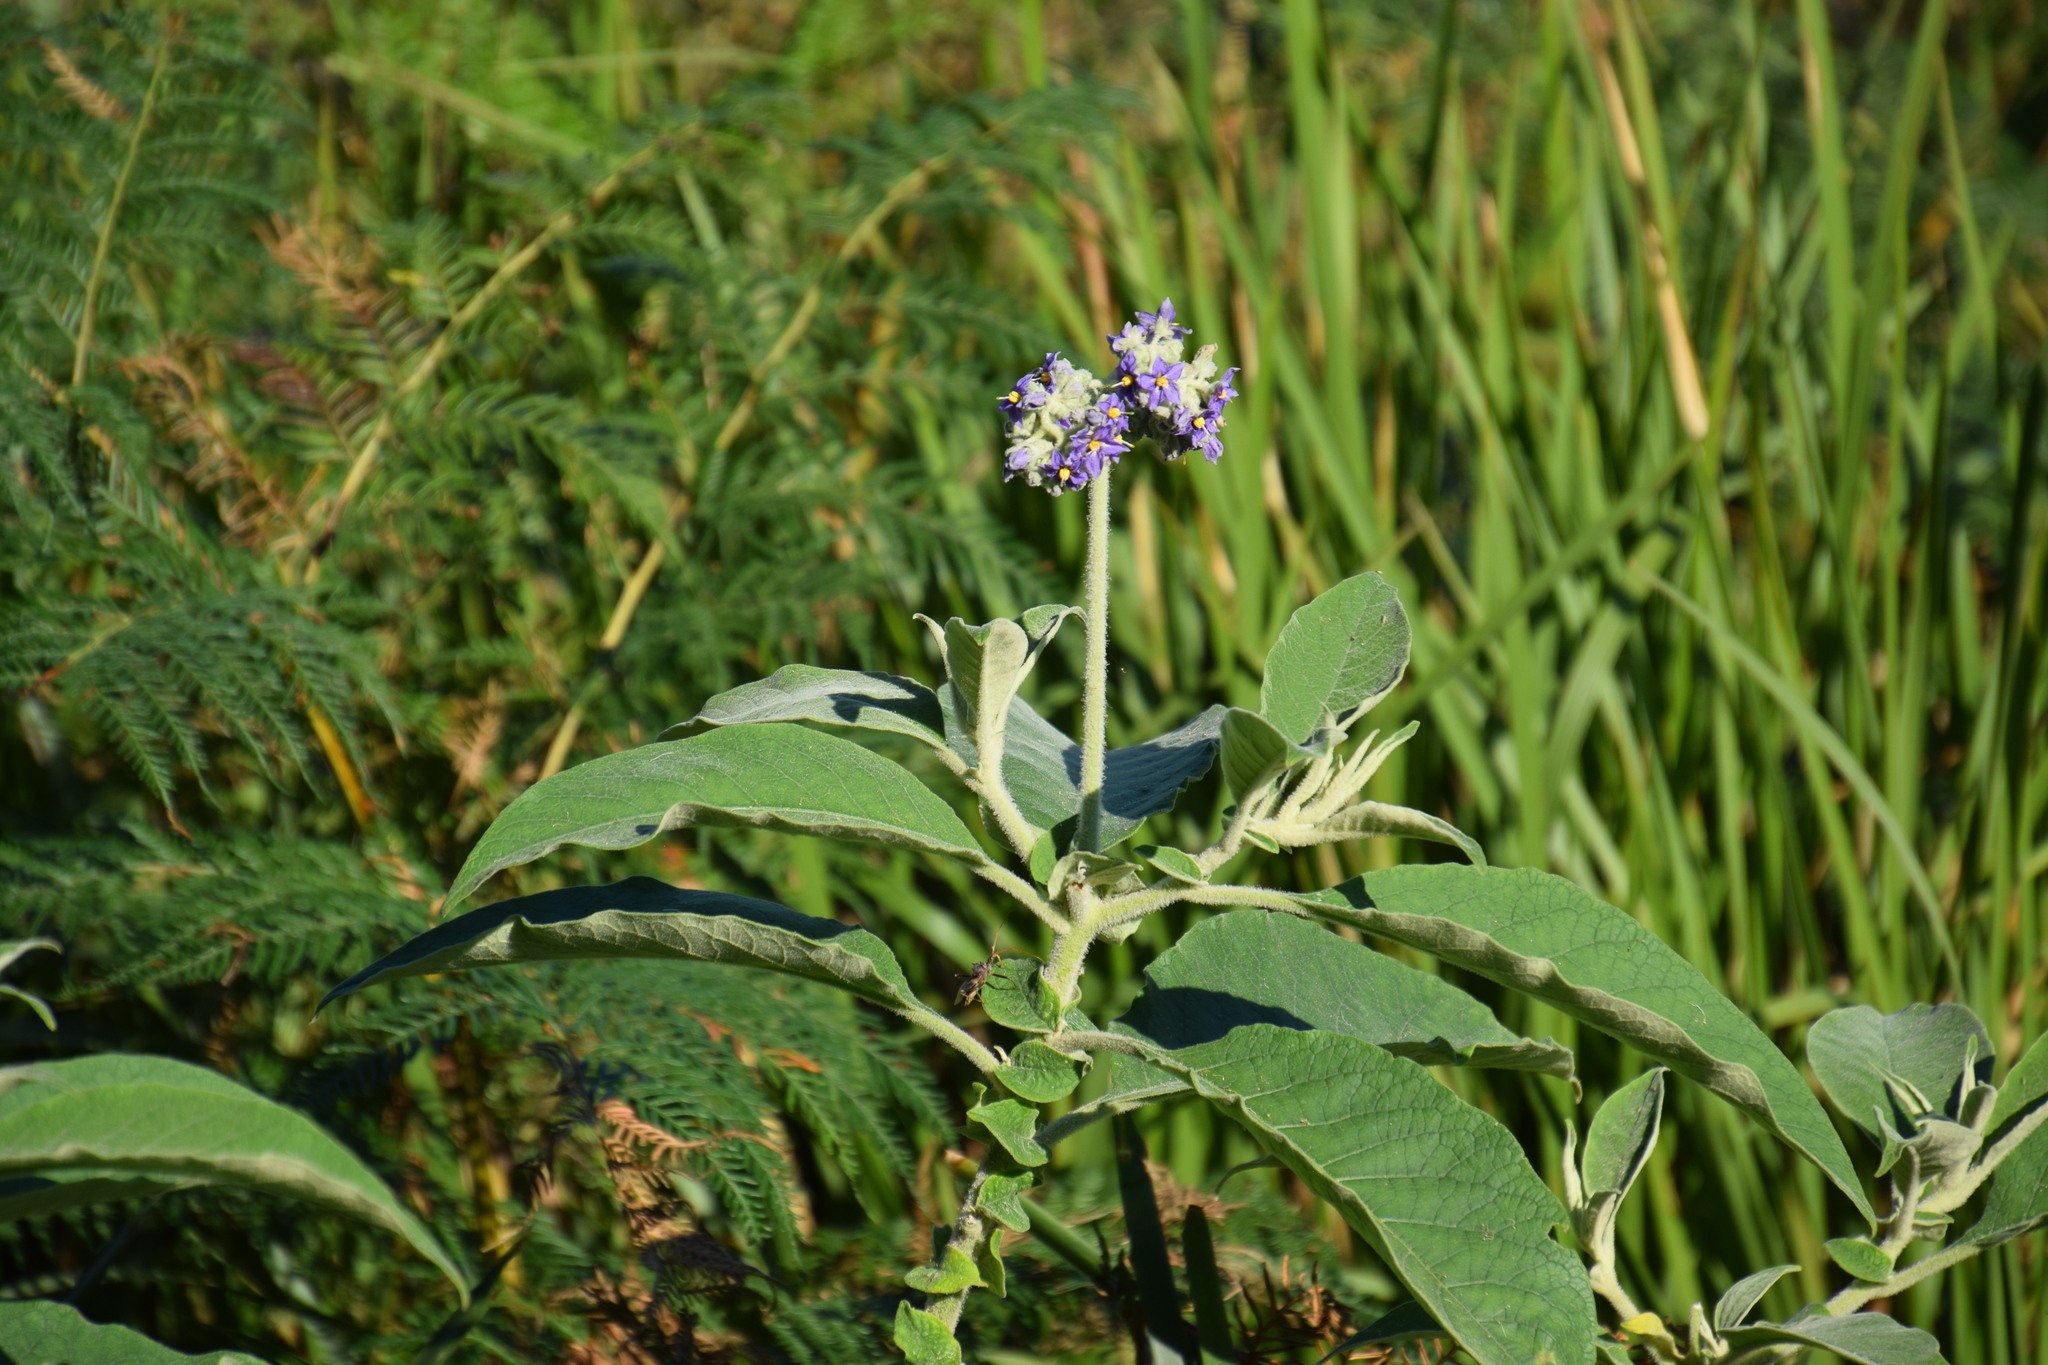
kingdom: Plantae
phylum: Tracheophyta
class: Magnoliopsida
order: Solanales
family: Solanaceae
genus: Solanum
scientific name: Solanum mauritianum
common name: Earleaf nightshade
